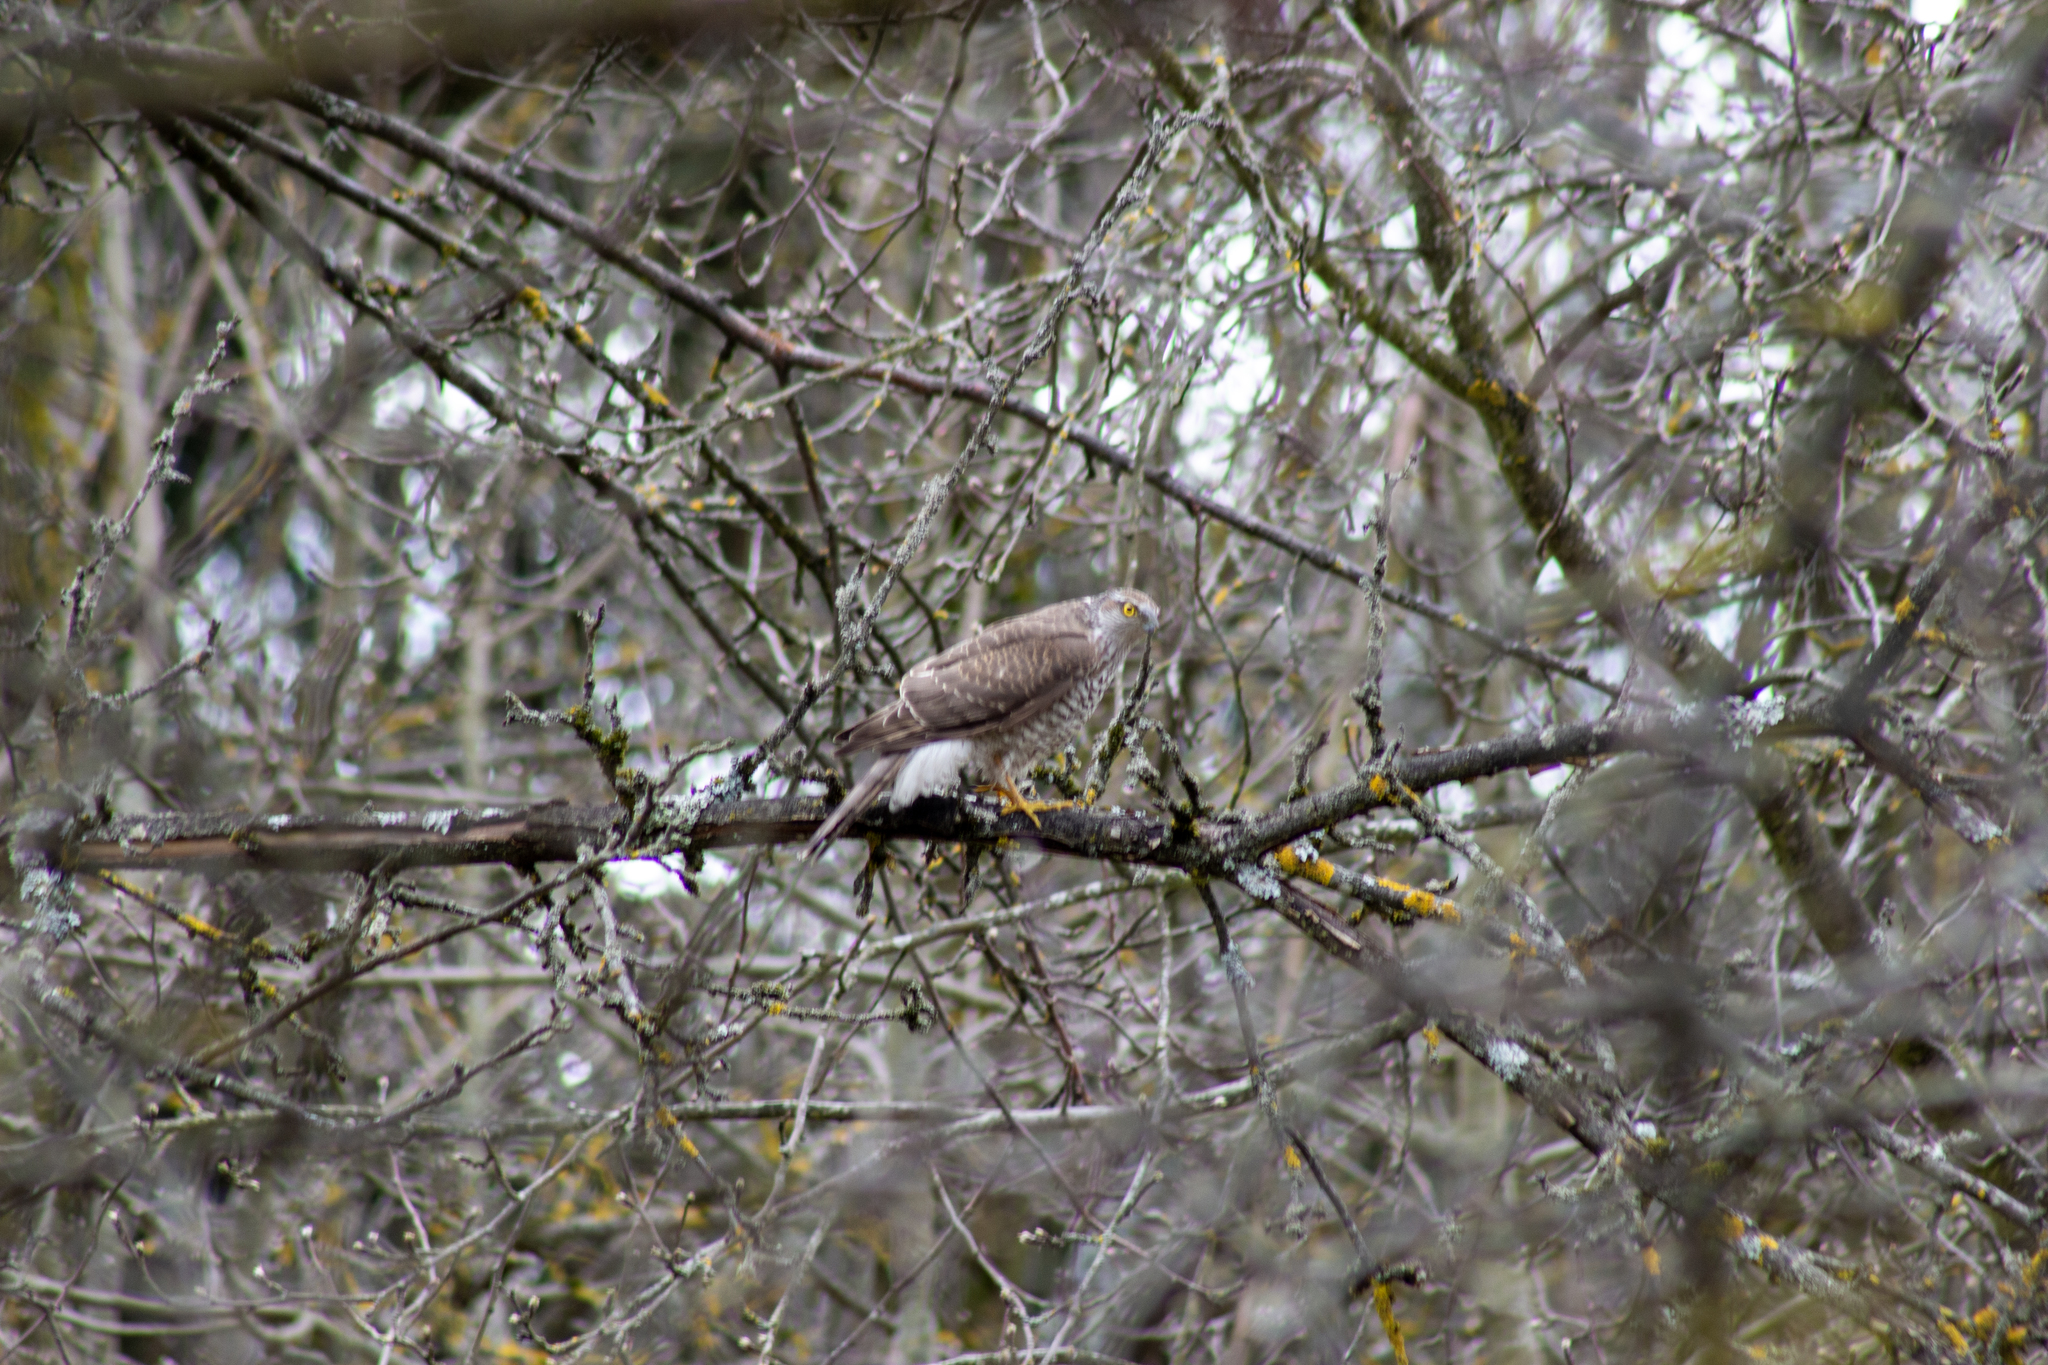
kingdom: Animalia
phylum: Chordata
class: Aves
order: Accipitriformes
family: Accipitridae
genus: Accipiter
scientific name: Accipiter nisus
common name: Eurasian sparrowhawk
